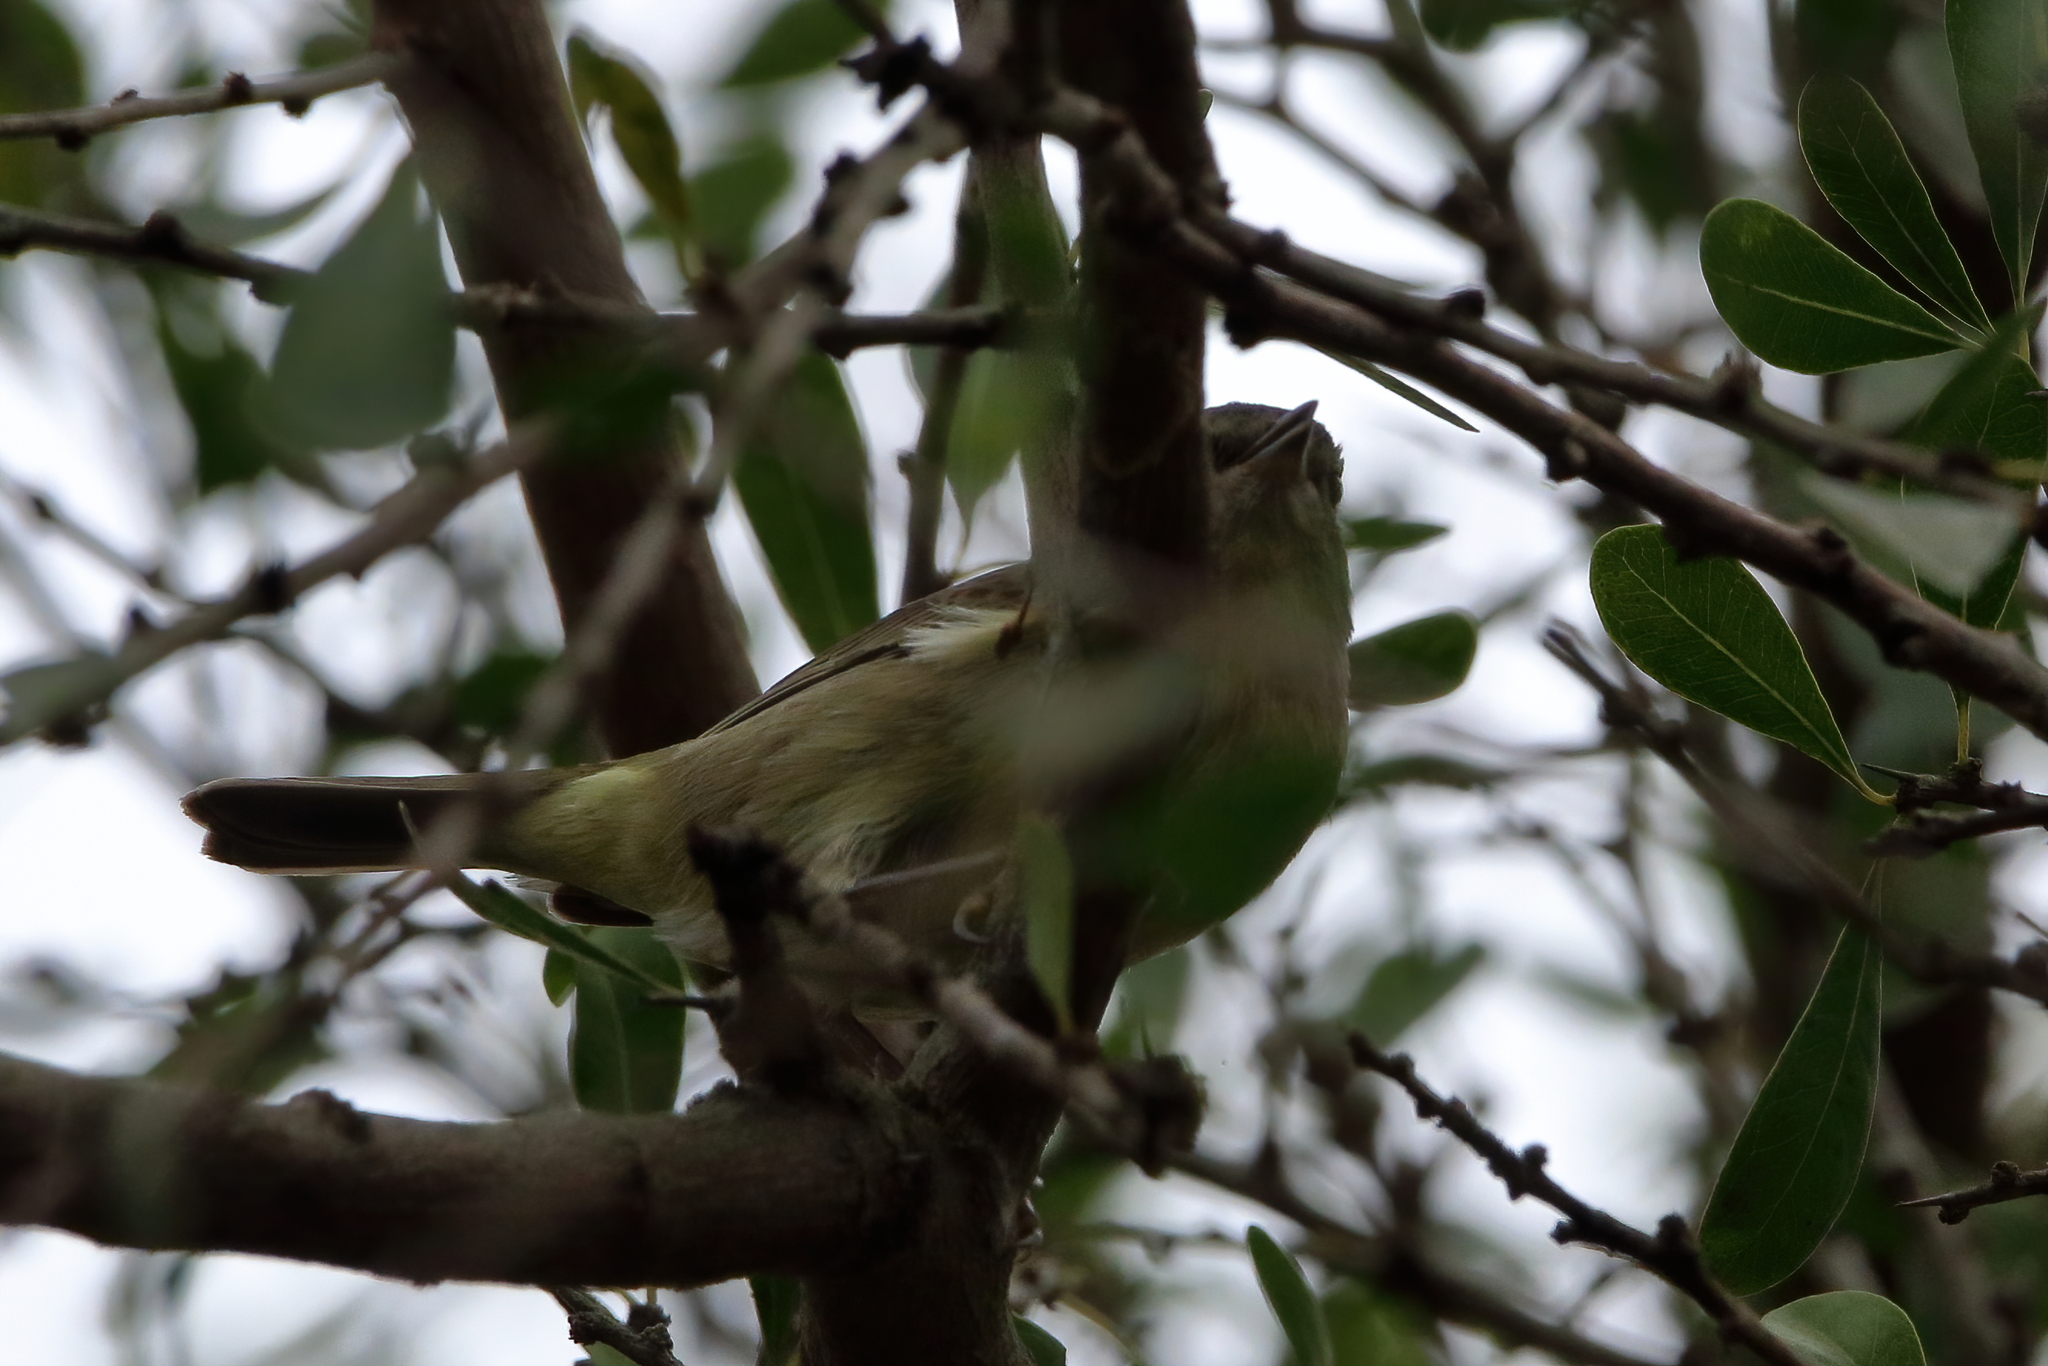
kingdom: Animalia
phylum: Chordata
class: Aves
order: Passeriformes
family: Parulidae
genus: Leiothlypis
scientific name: Leiothlypis celata
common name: Orange-crowned warbler
